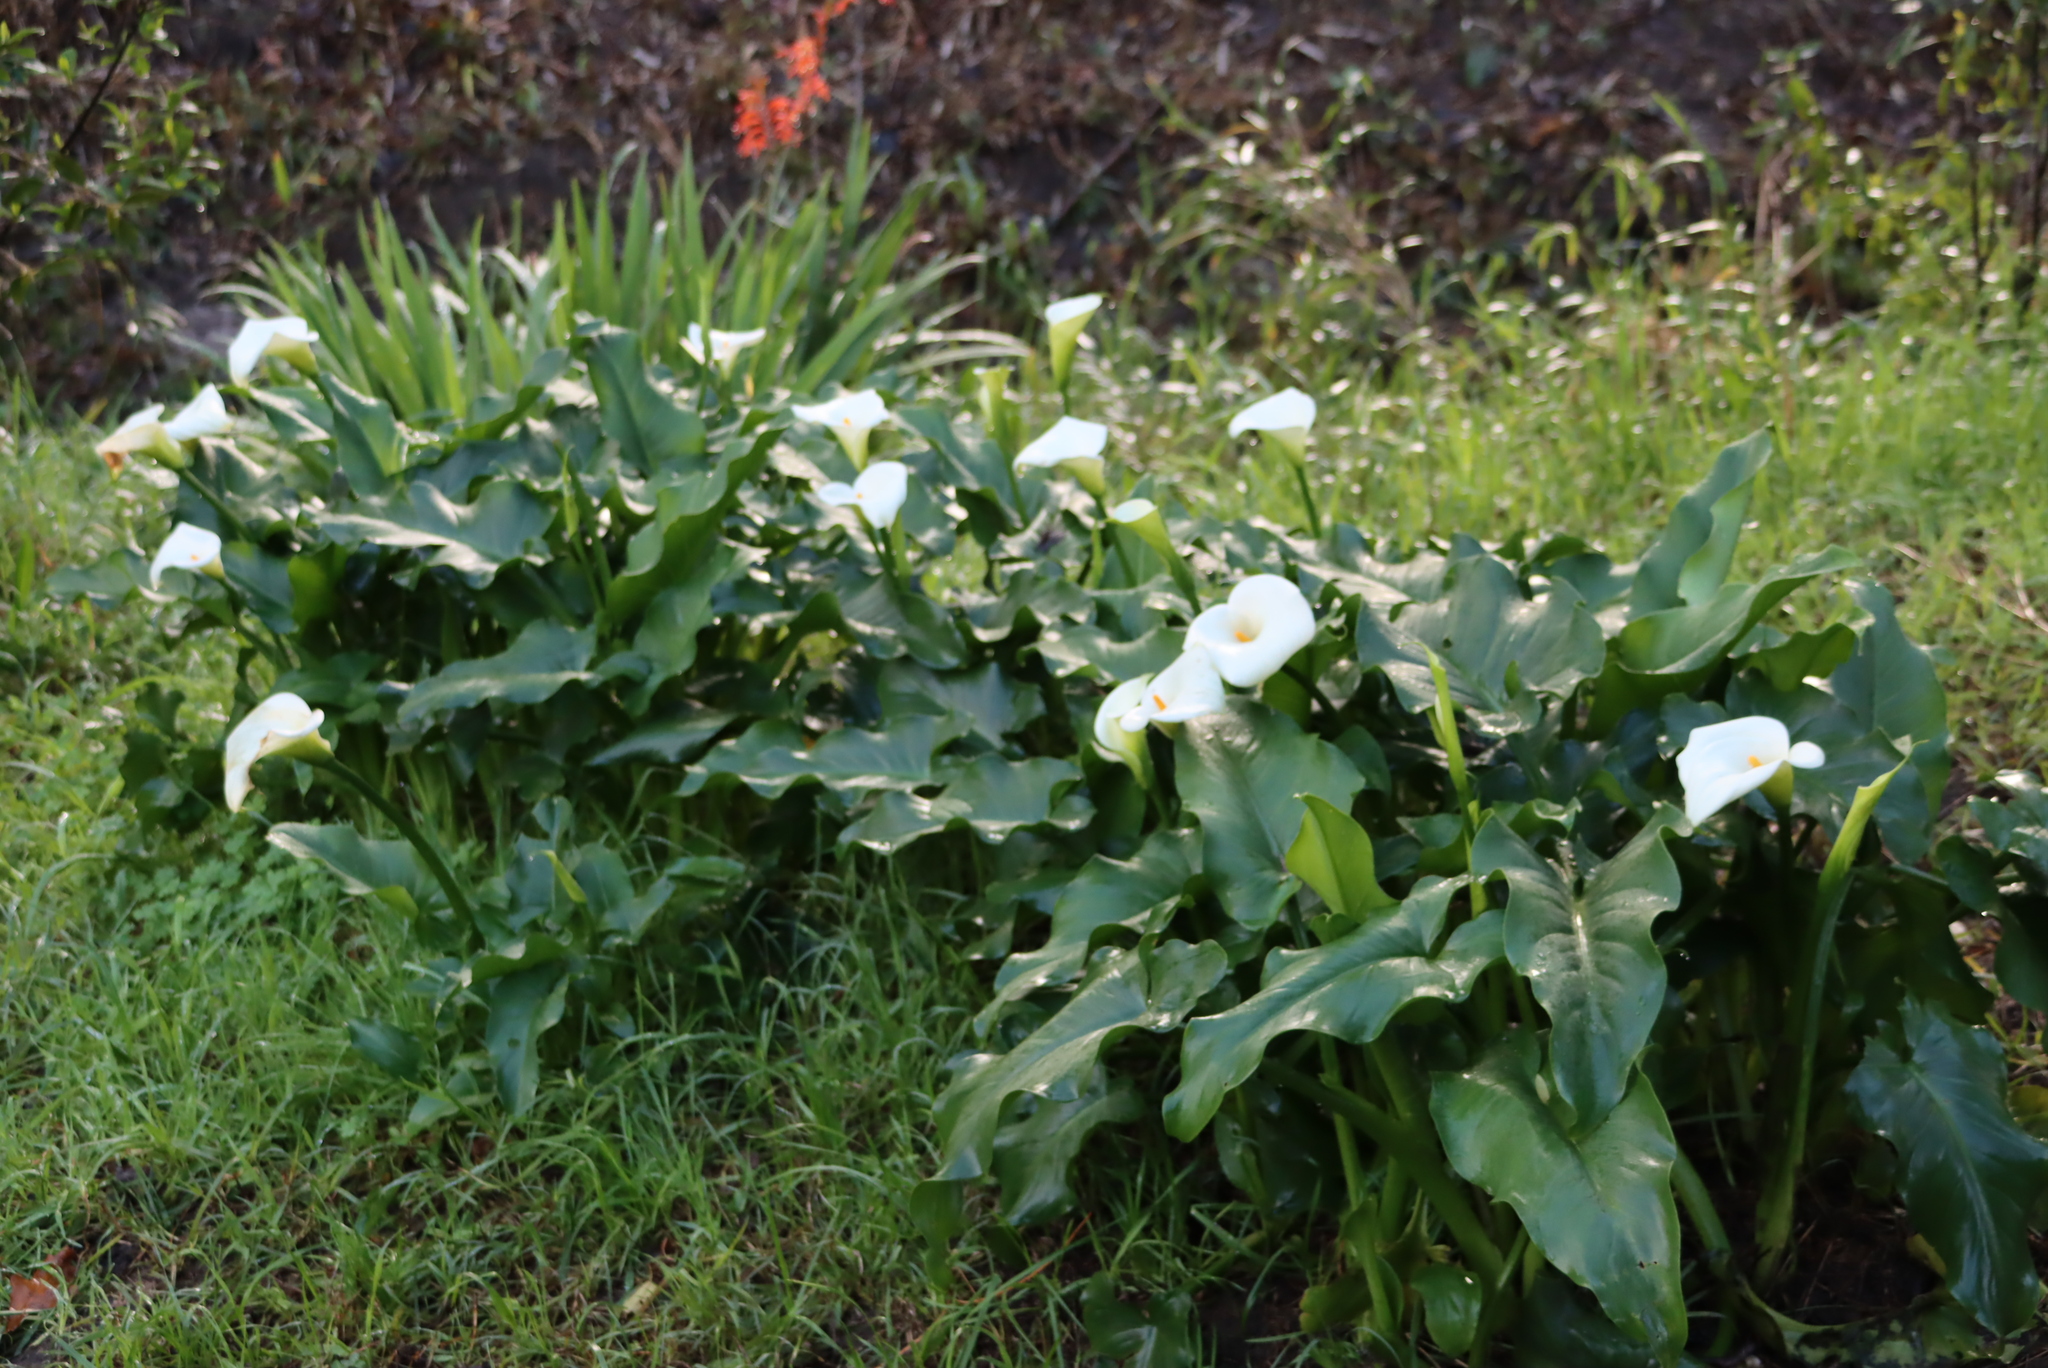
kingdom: Plantae
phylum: Tracheophyta
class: Liliopsida
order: Alismatales
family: Araceae
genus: Zantedeschia
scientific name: Zantedeschia aethiopica
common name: Altar-lily
